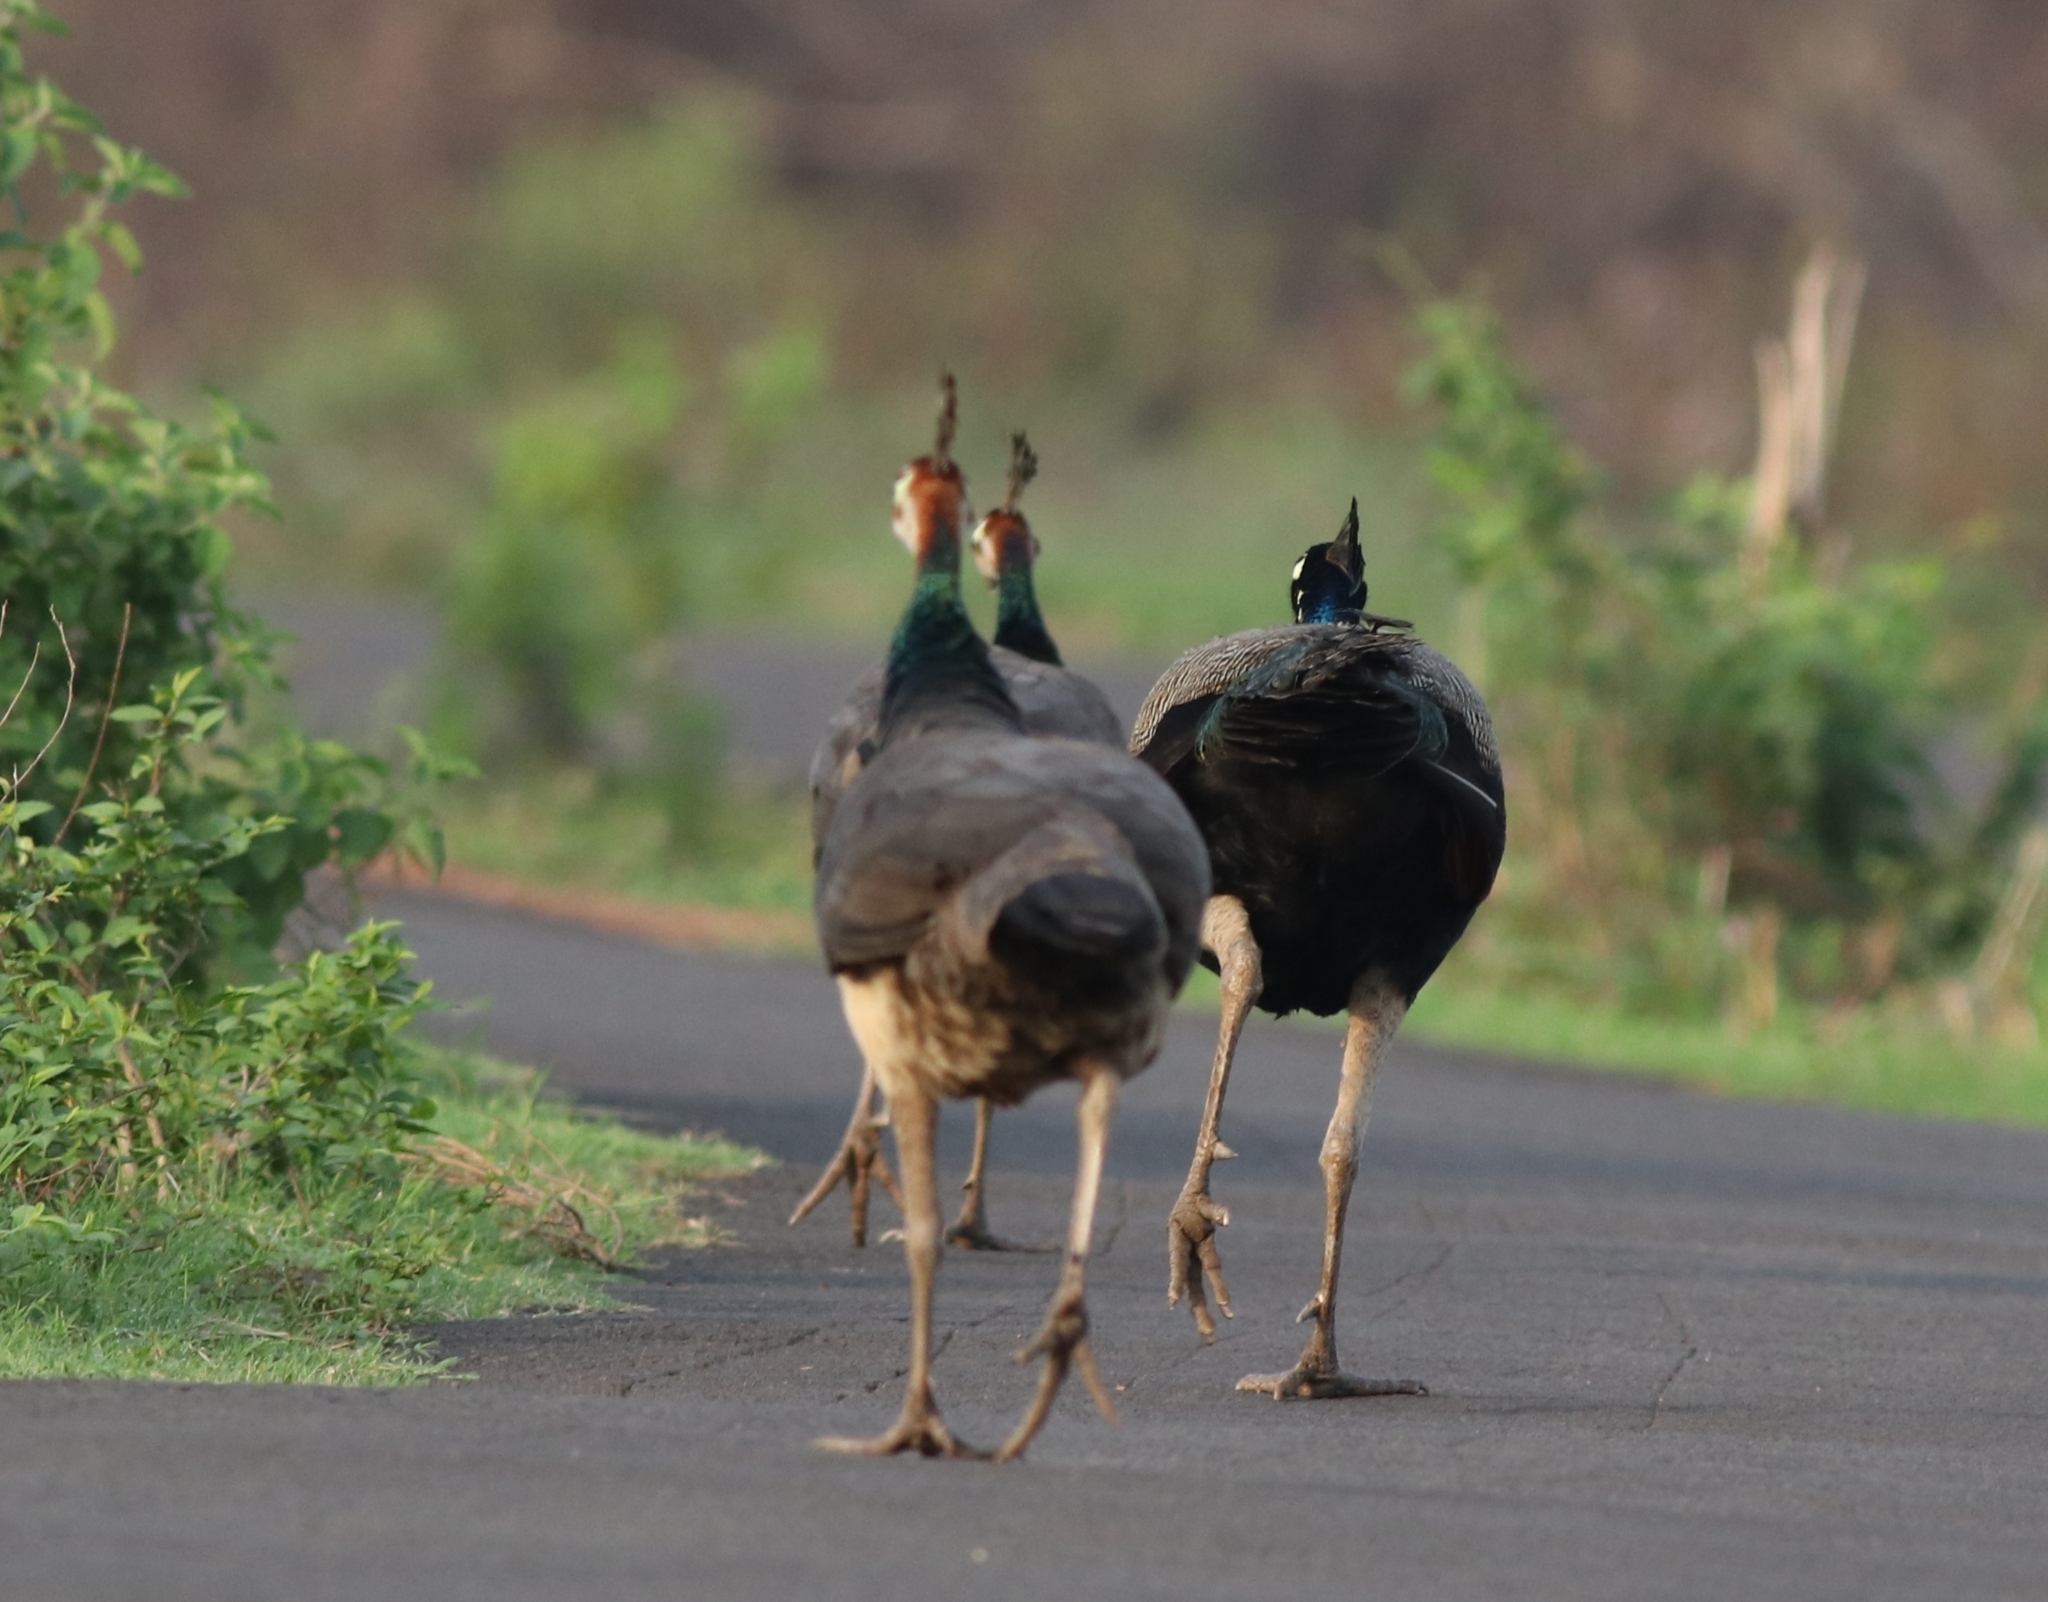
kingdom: Animalia
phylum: Chordata
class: Aves
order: Galliformes
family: Phasianidae
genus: Pavo
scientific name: Pavo cristatus
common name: Indian peafowl
